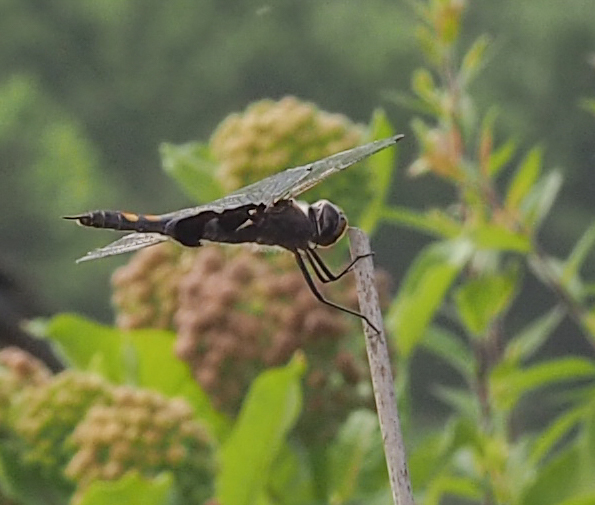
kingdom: Animalia
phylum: Arthropoda
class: Insecta
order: Odonata
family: Libellulidae
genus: Tramea
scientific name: Tramea lacerata
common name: Black saddlebags
